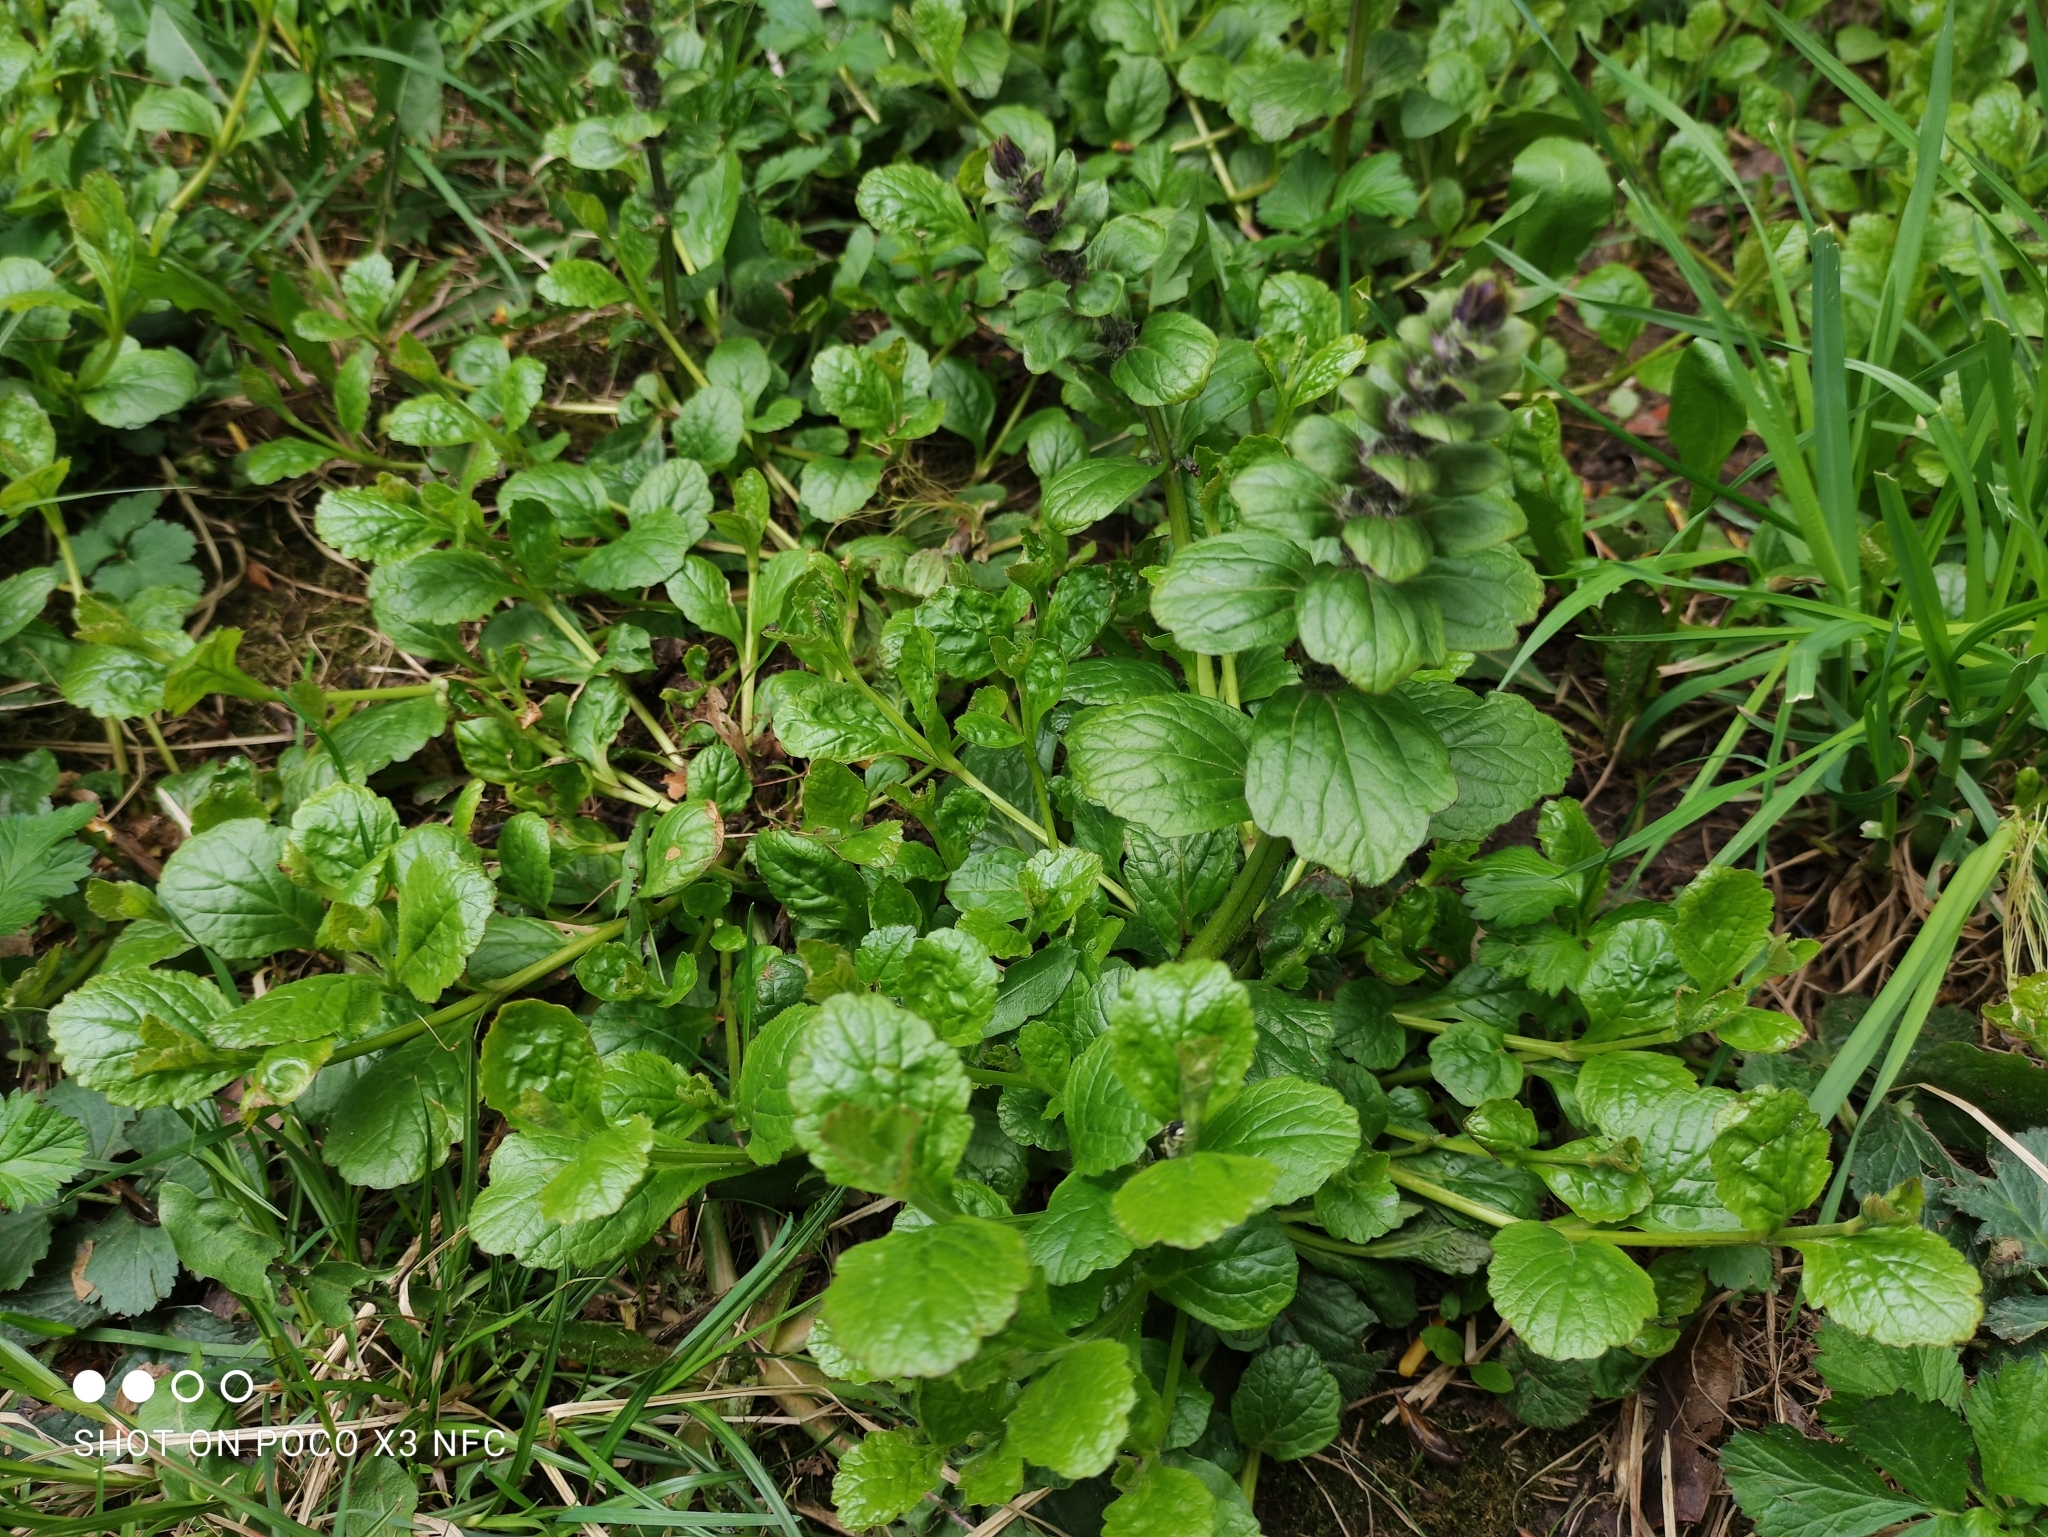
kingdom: Plantae
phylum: Tracheophyta
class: Magnoliopsida
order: Lamiales
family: Lamiaceae
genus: Ajuga
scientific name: Ajuga reptans
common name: Bugle
